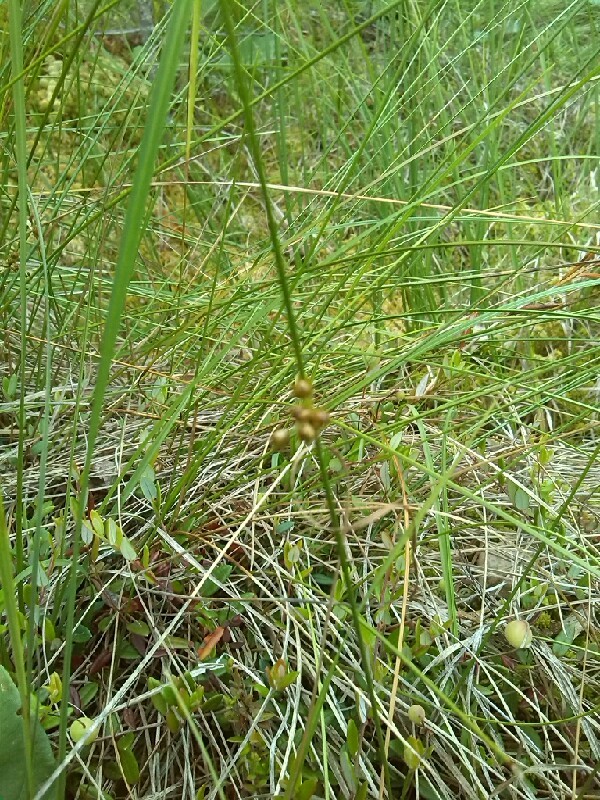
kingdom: Plantae
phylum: Tracheophyta
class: Liliopsida
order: Poales
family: Juncaceae
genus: Juncus
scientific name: Juncus filiformis
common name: Thread rush
